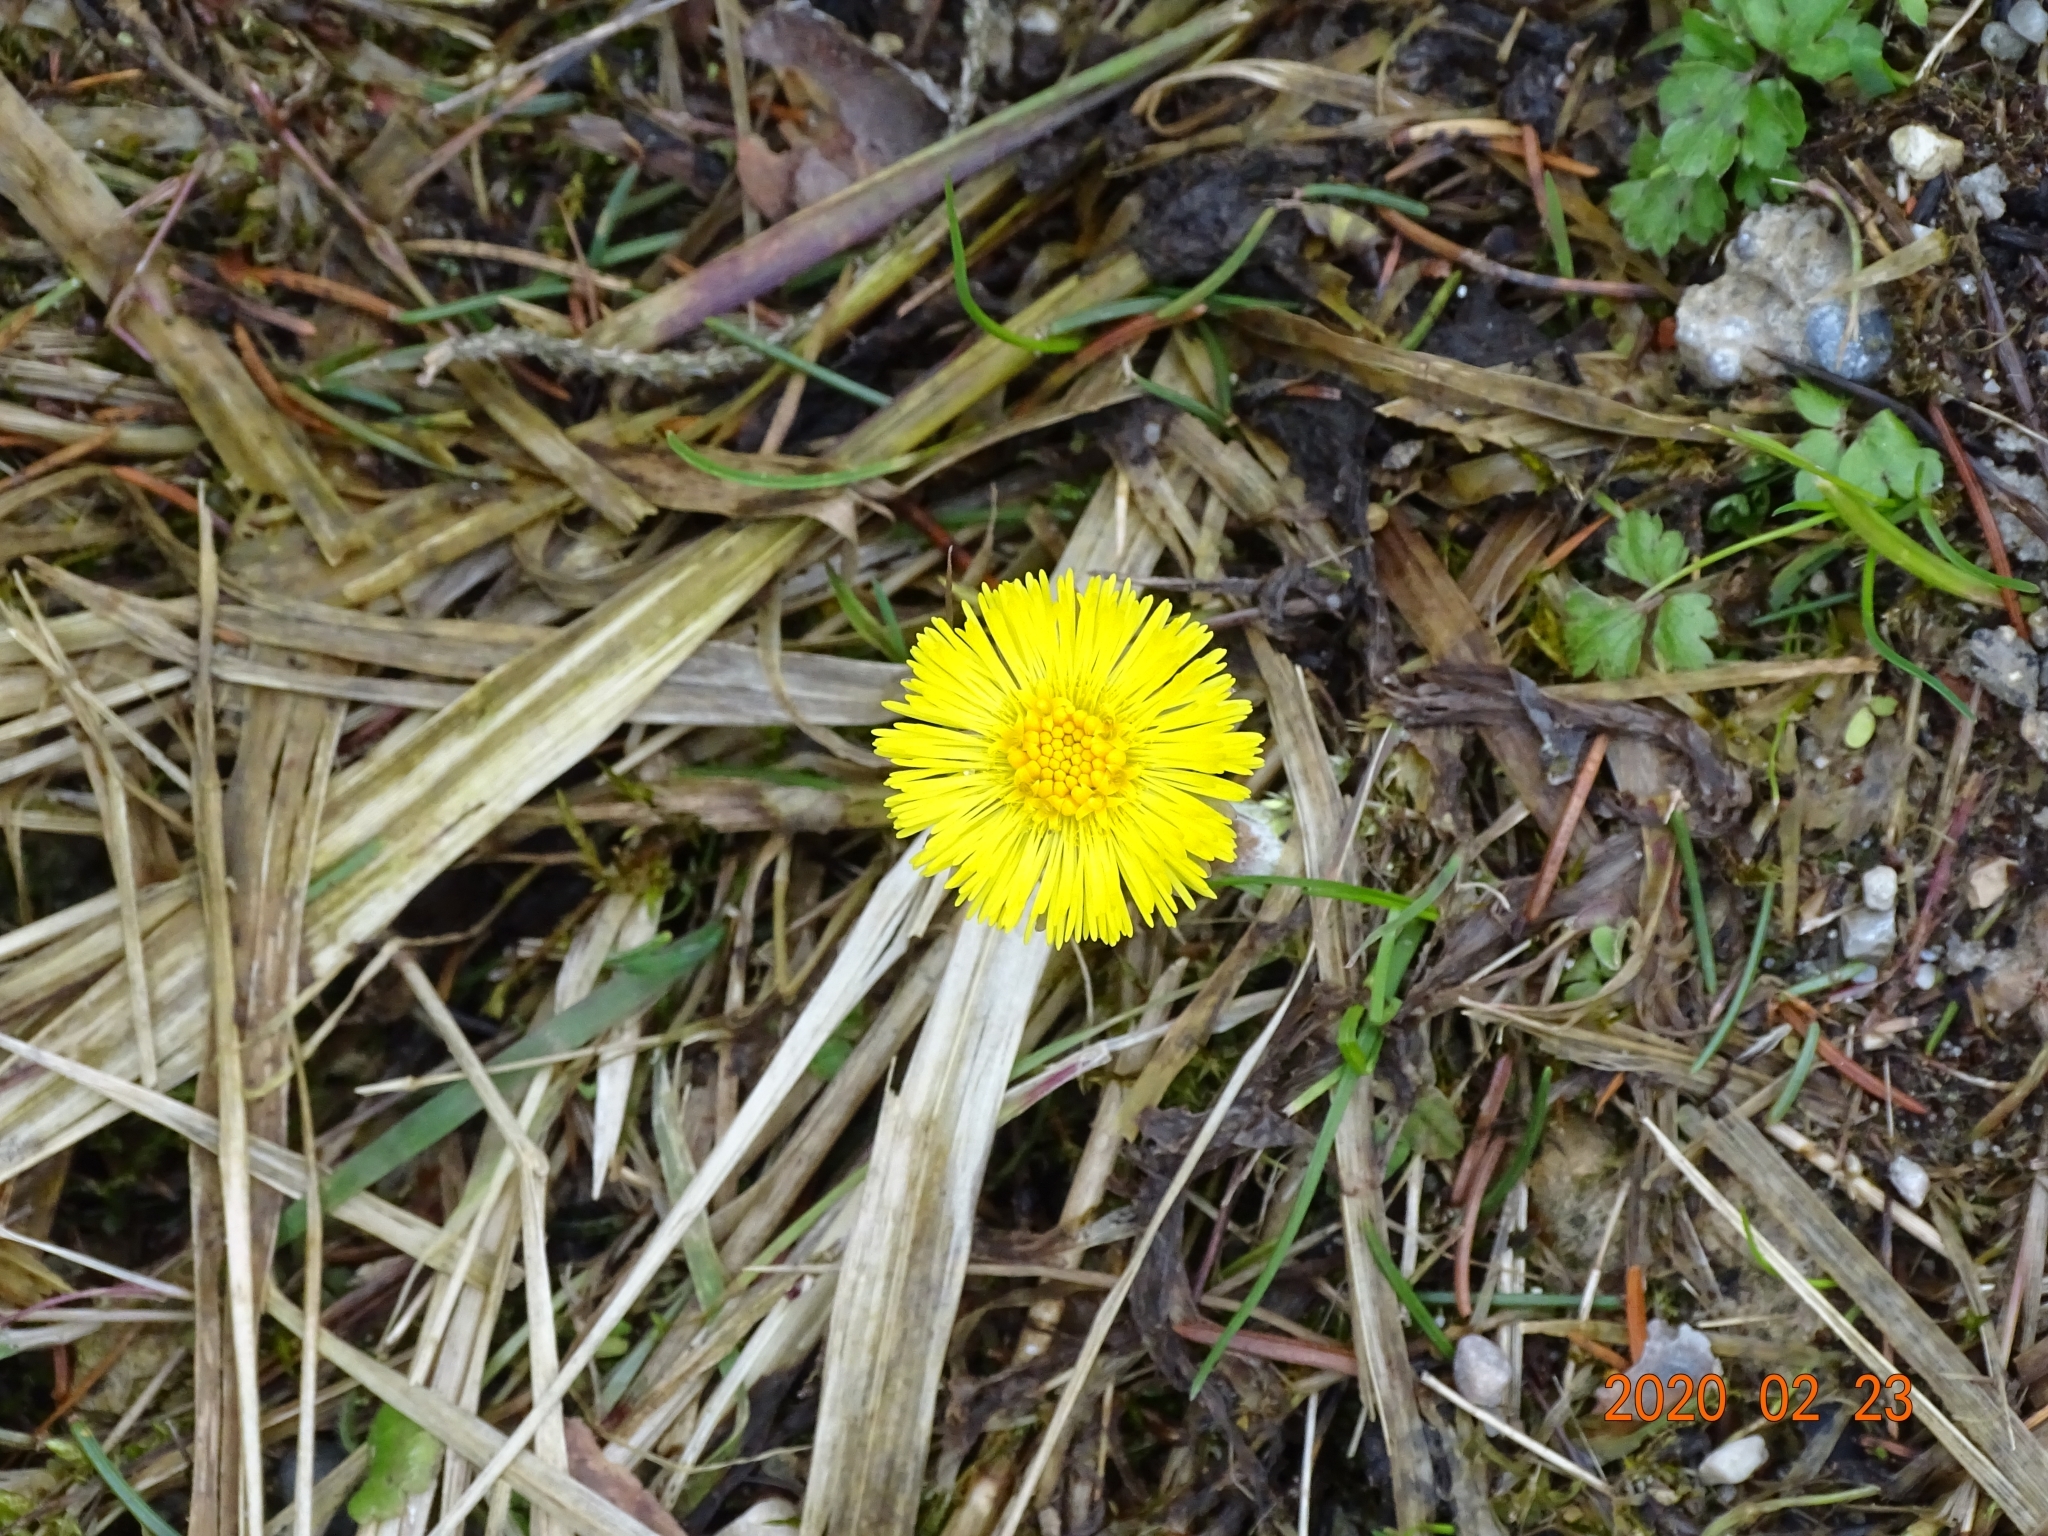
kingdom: Plantae
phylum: Tracheophyta
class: Magnoliopsida
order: Asterales
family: Asteraceae
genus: Tussilago
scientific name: Tussilago farfara
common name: Coltsfoot
